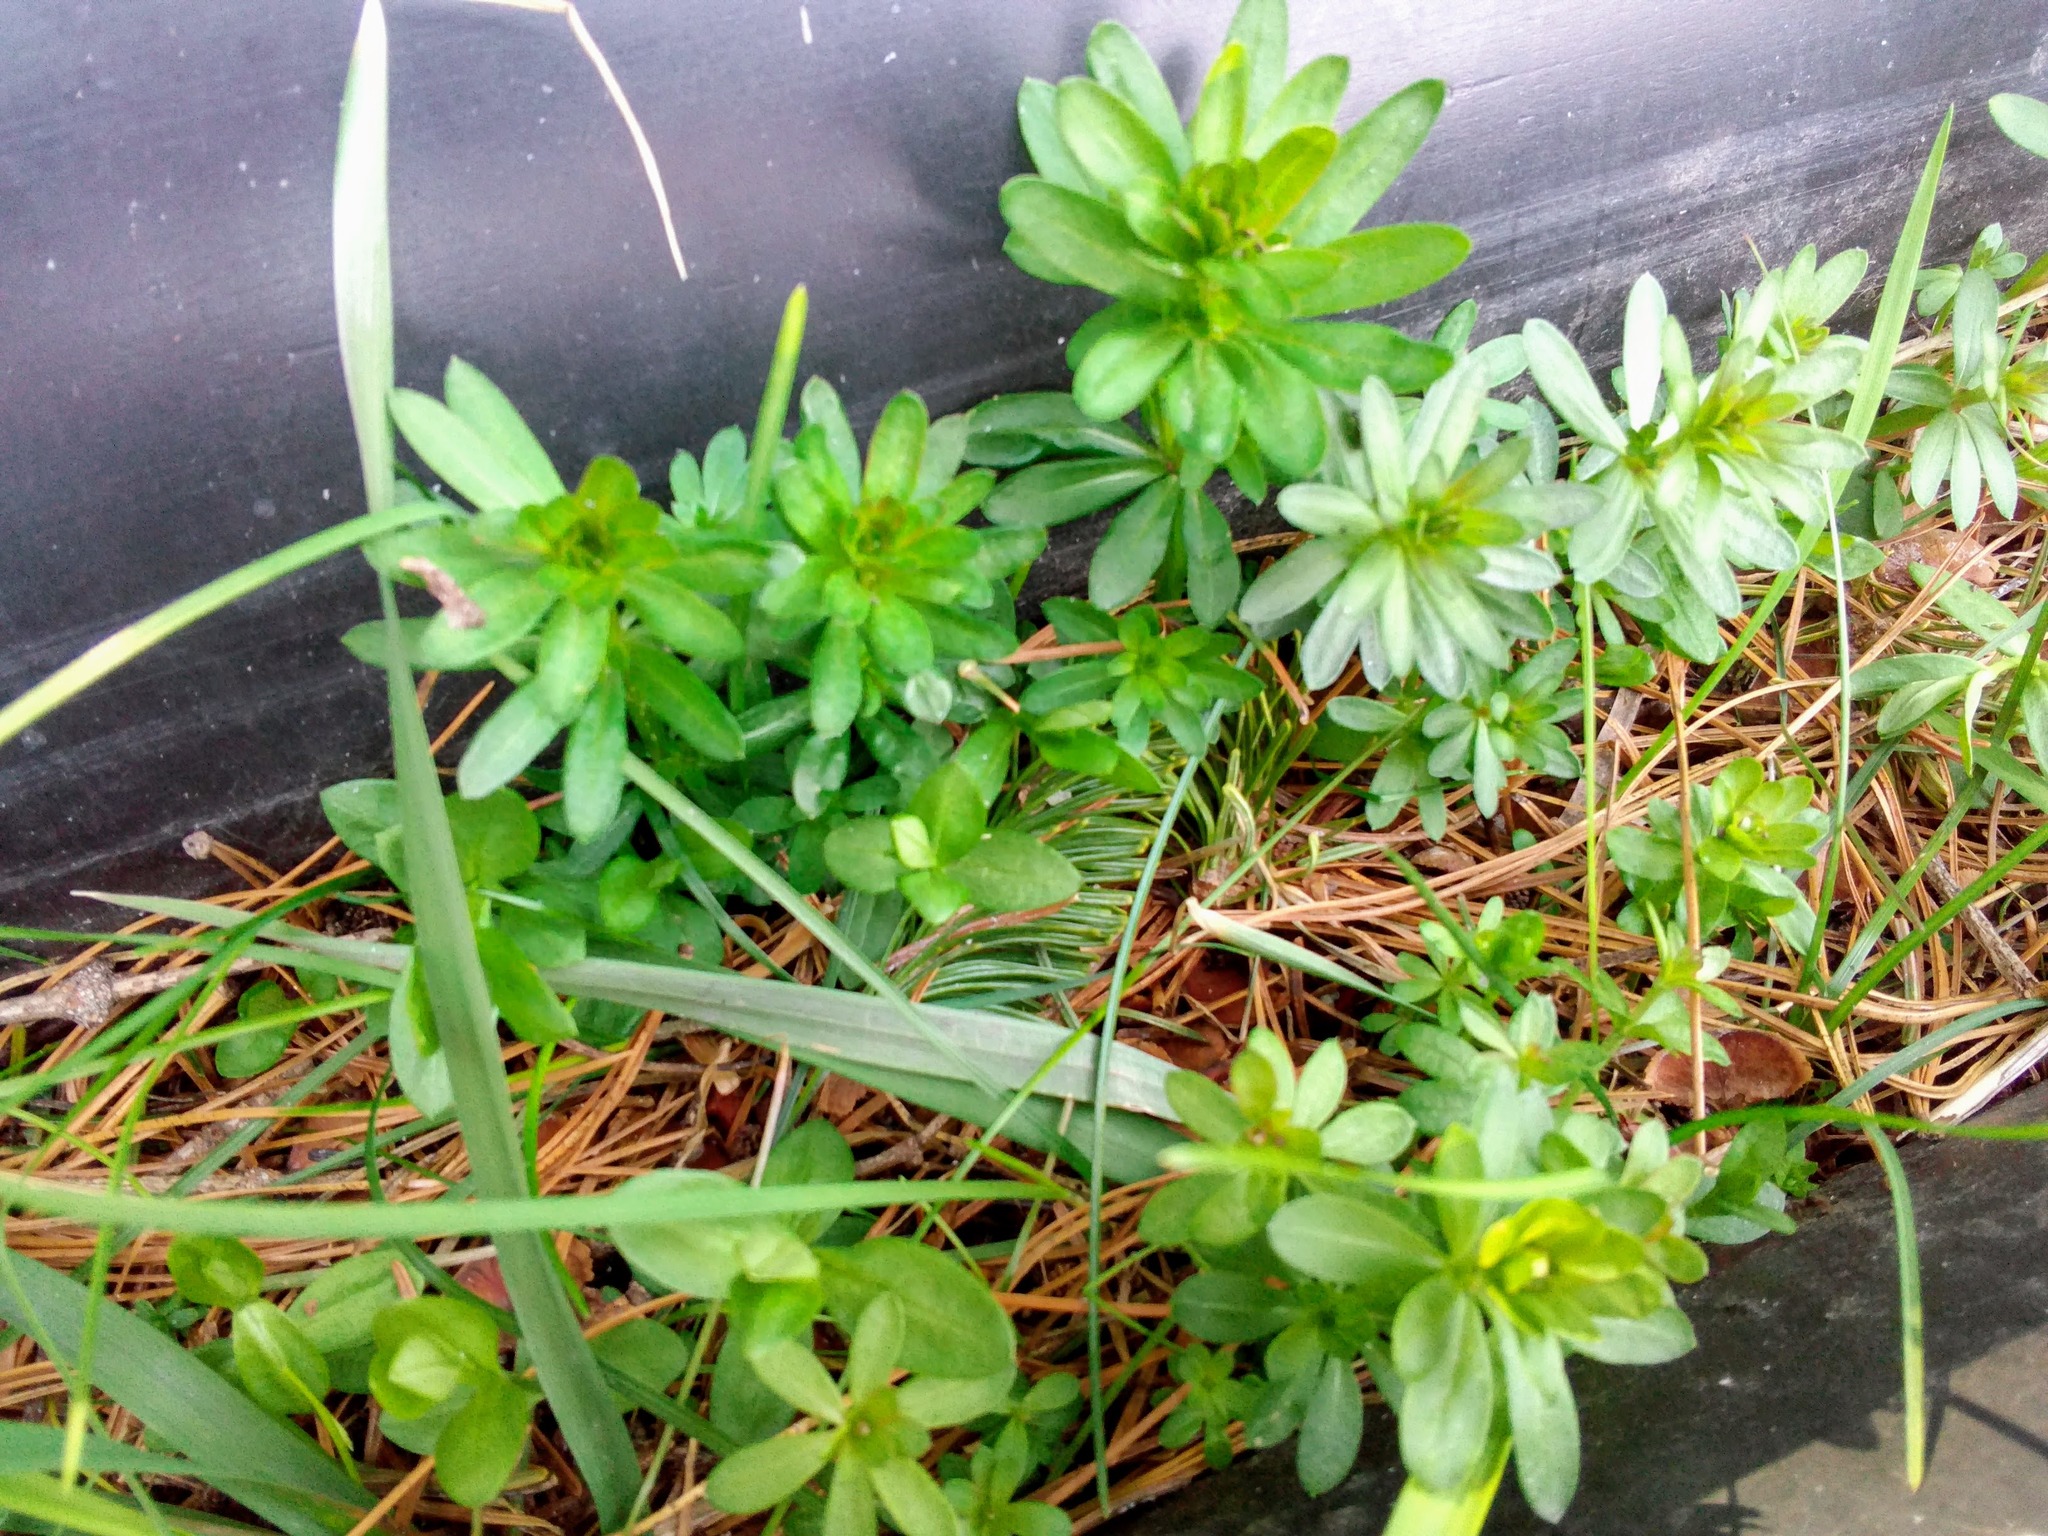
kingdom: Plantae
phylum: Tracheophyta
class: Magnoliopsida
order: Gentianales
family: Rubiaceae
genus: Galium
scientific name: Galium mollugo
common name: Hedge bedstraw
